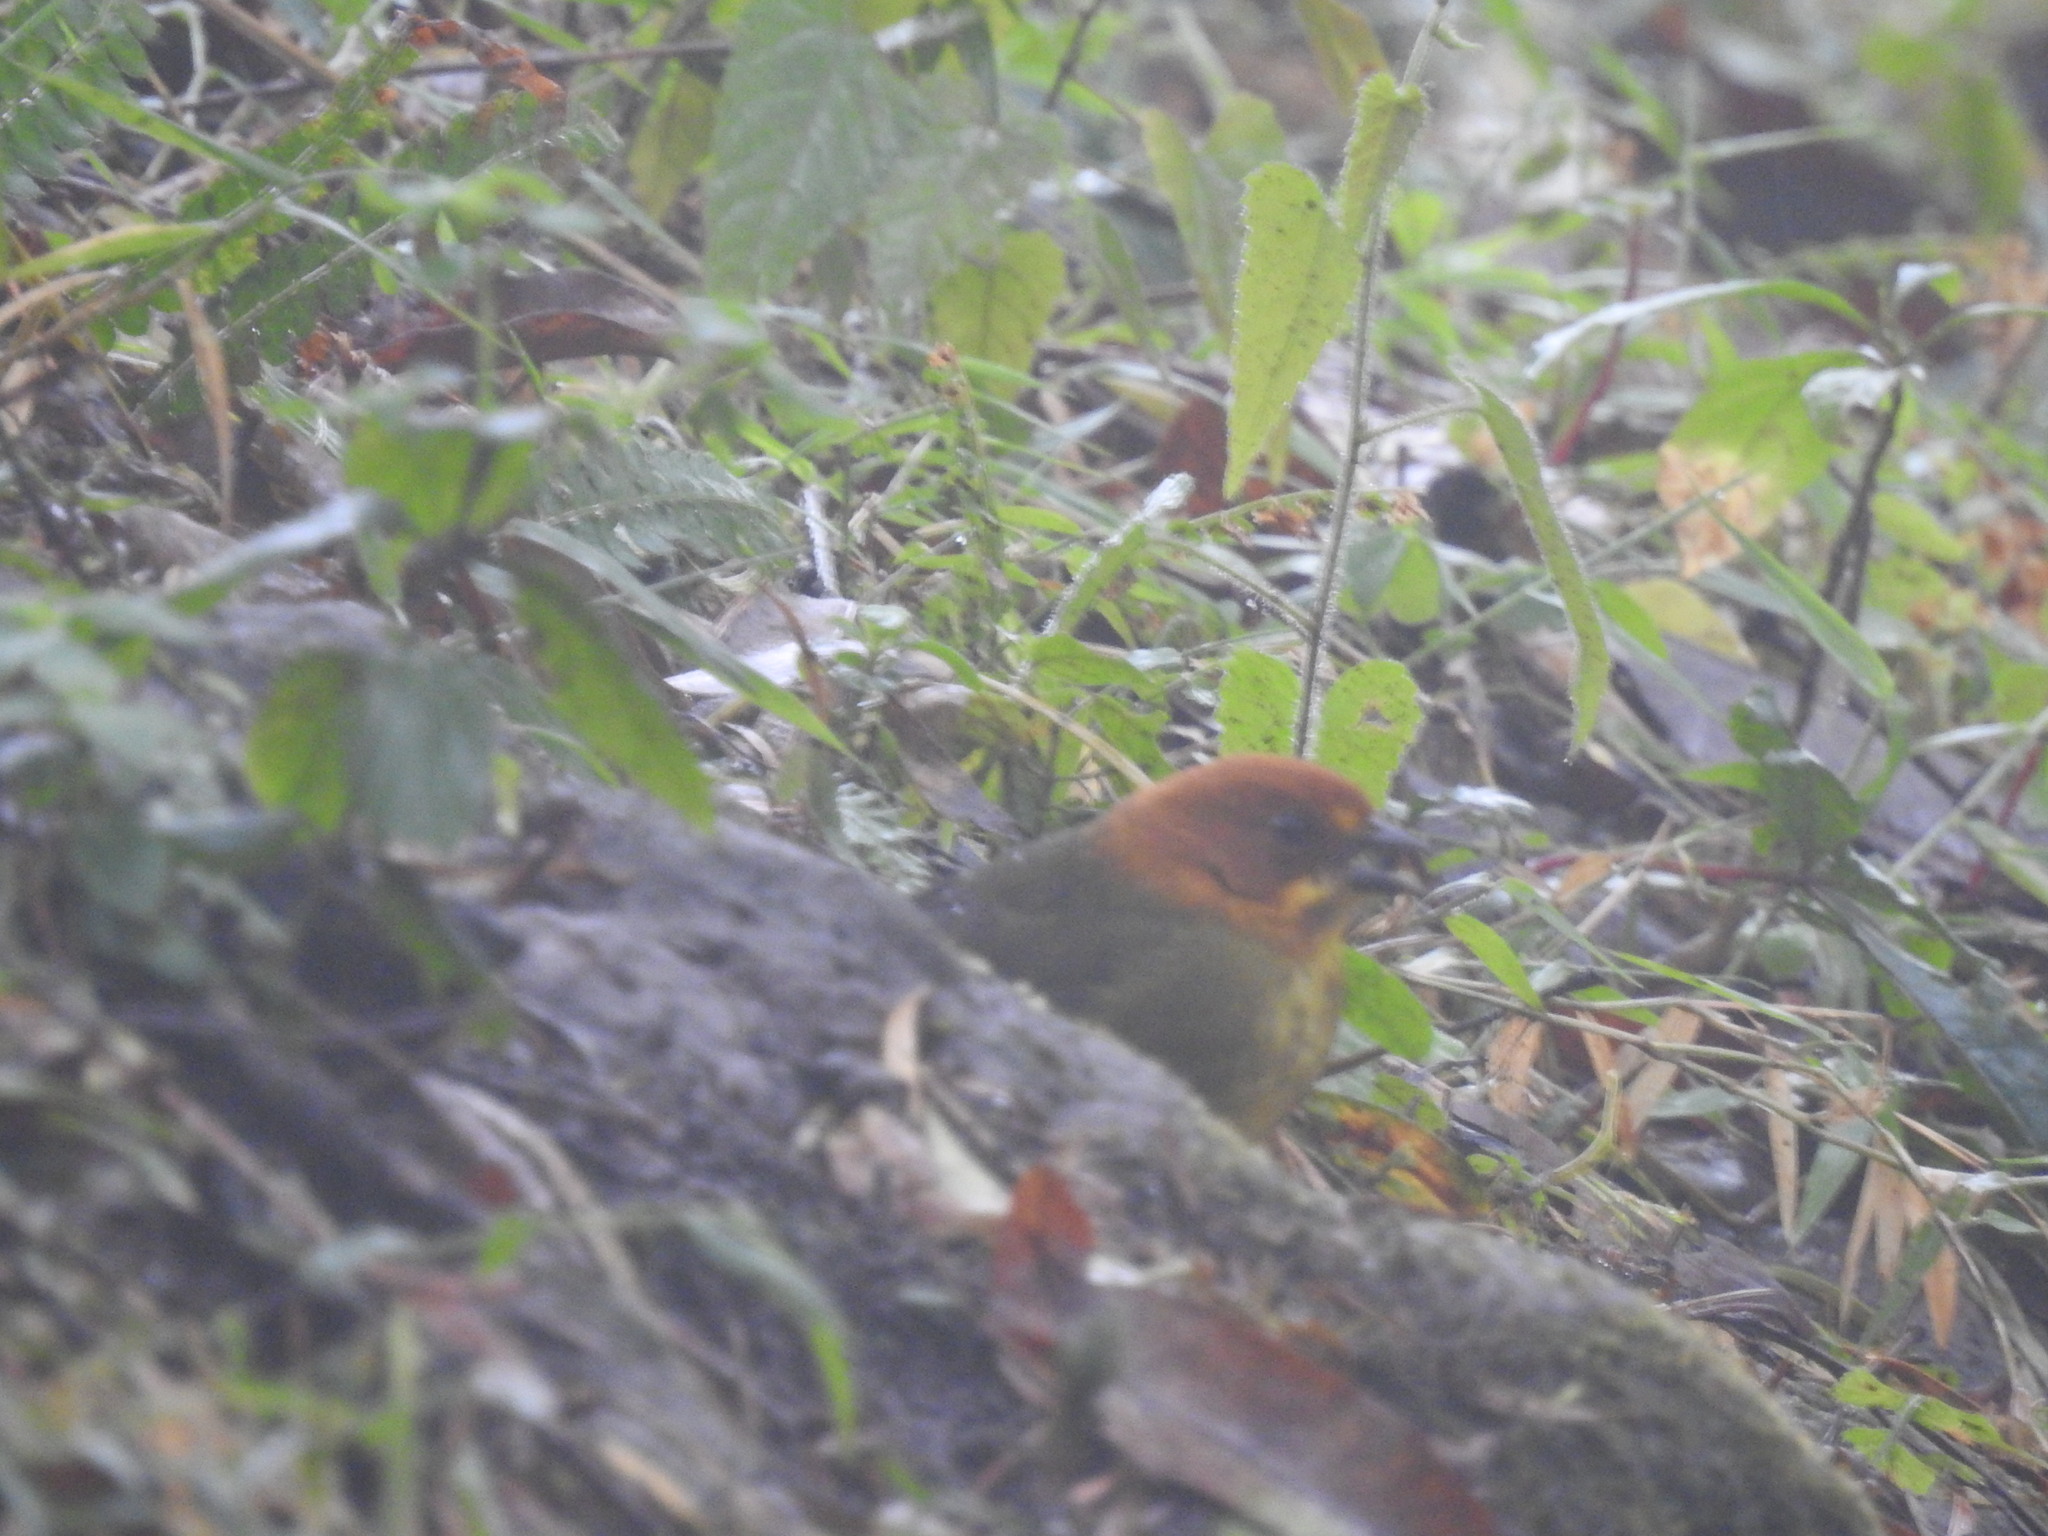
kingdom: Animalia
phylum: Chordata
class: Aves
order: Passeriformes
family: Passerellidae
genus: Atlapetes
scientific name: Atlapetes fulviceps
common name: Fulvous-headed brushfinch
